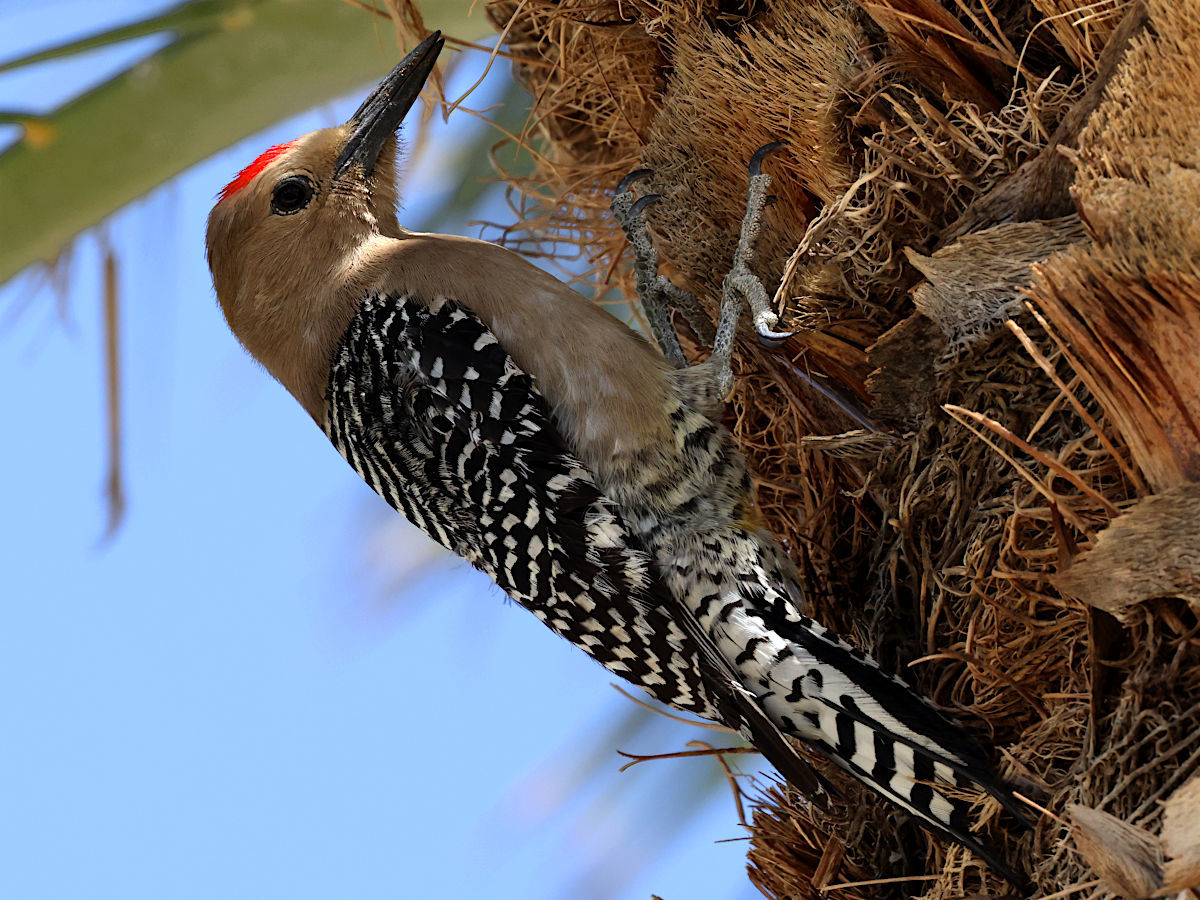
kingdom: Animalia
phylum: Chordata
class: Aves
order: Piciformes
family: Picidae
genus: Melanerpes
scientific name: Melanerpes uropygialis
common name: Gila woodpecker
